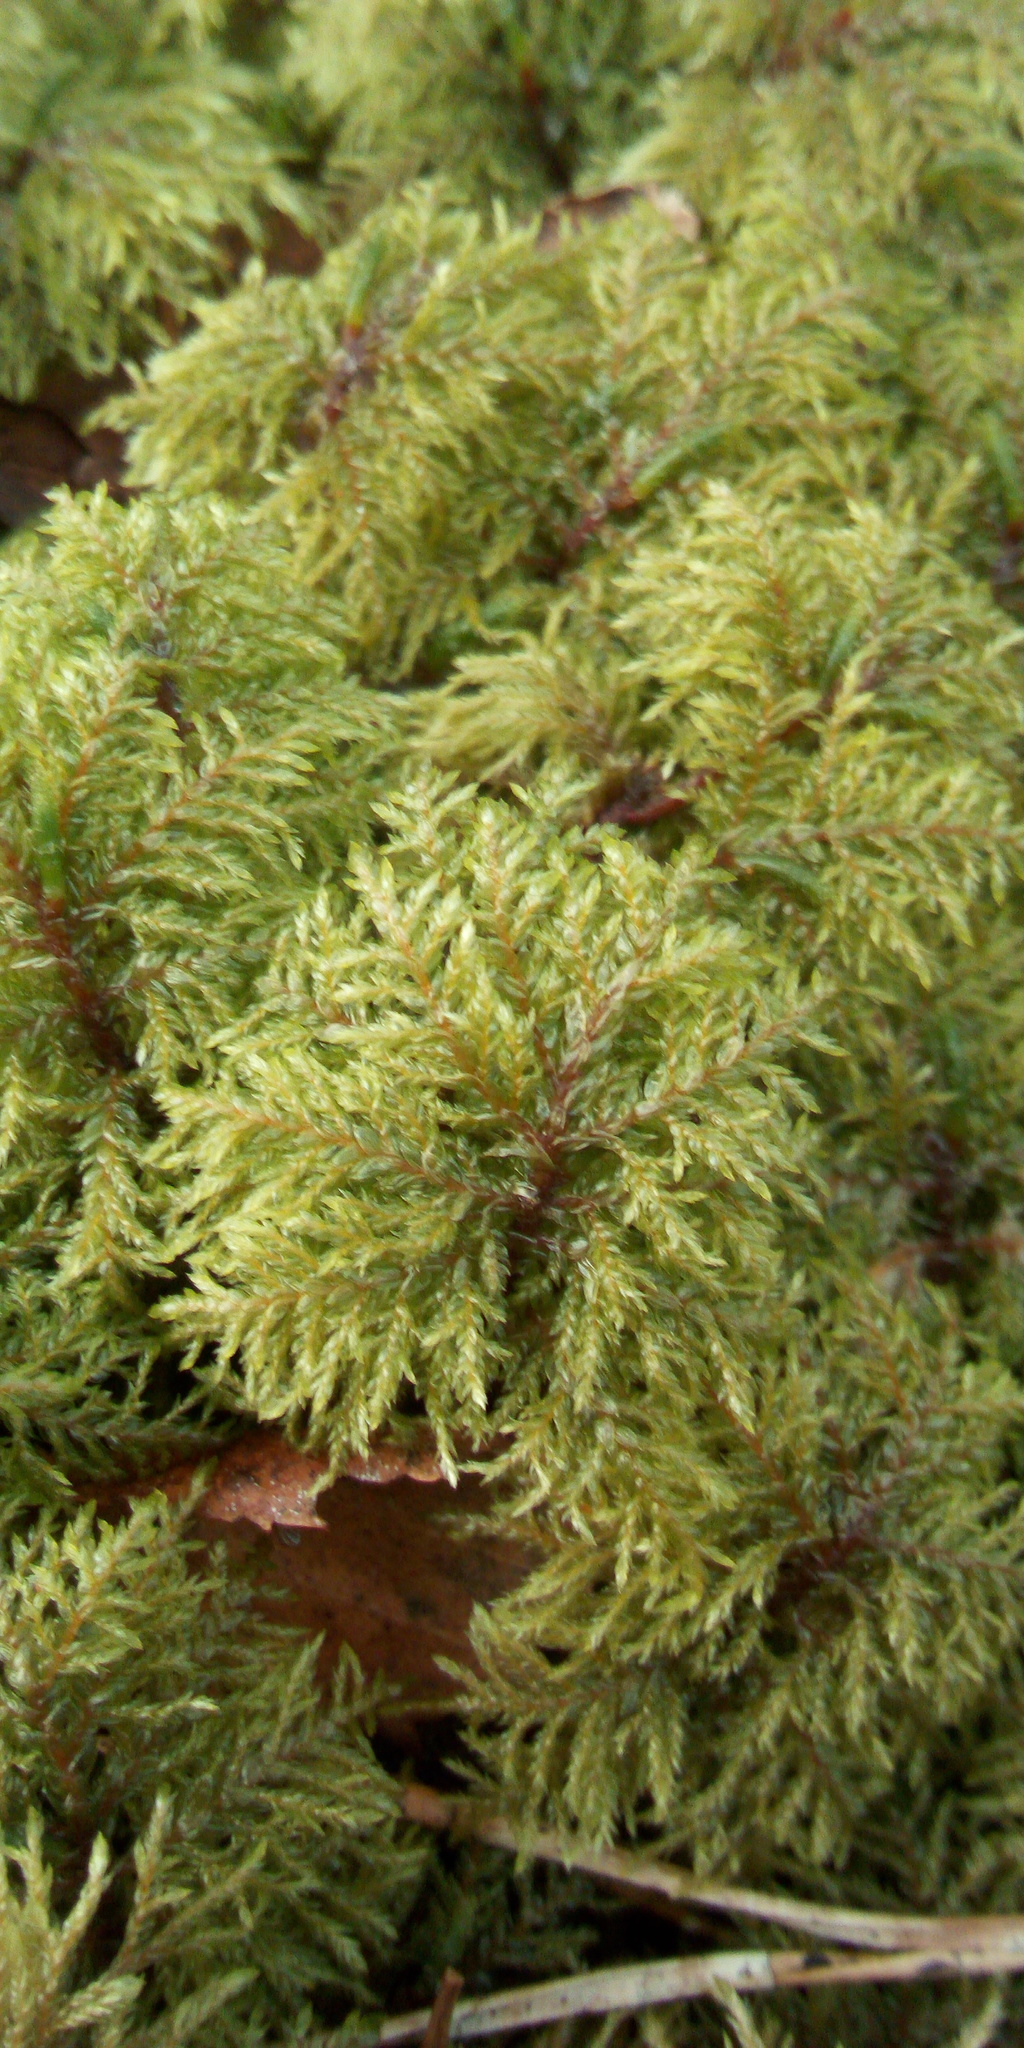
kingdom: Plantae
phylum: Bryophyta
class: Bryopsida
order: Hypnales
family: Hylocomiaceae
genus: Hylocomium
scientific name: Hylocomium splendens
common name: Stairstep moss
